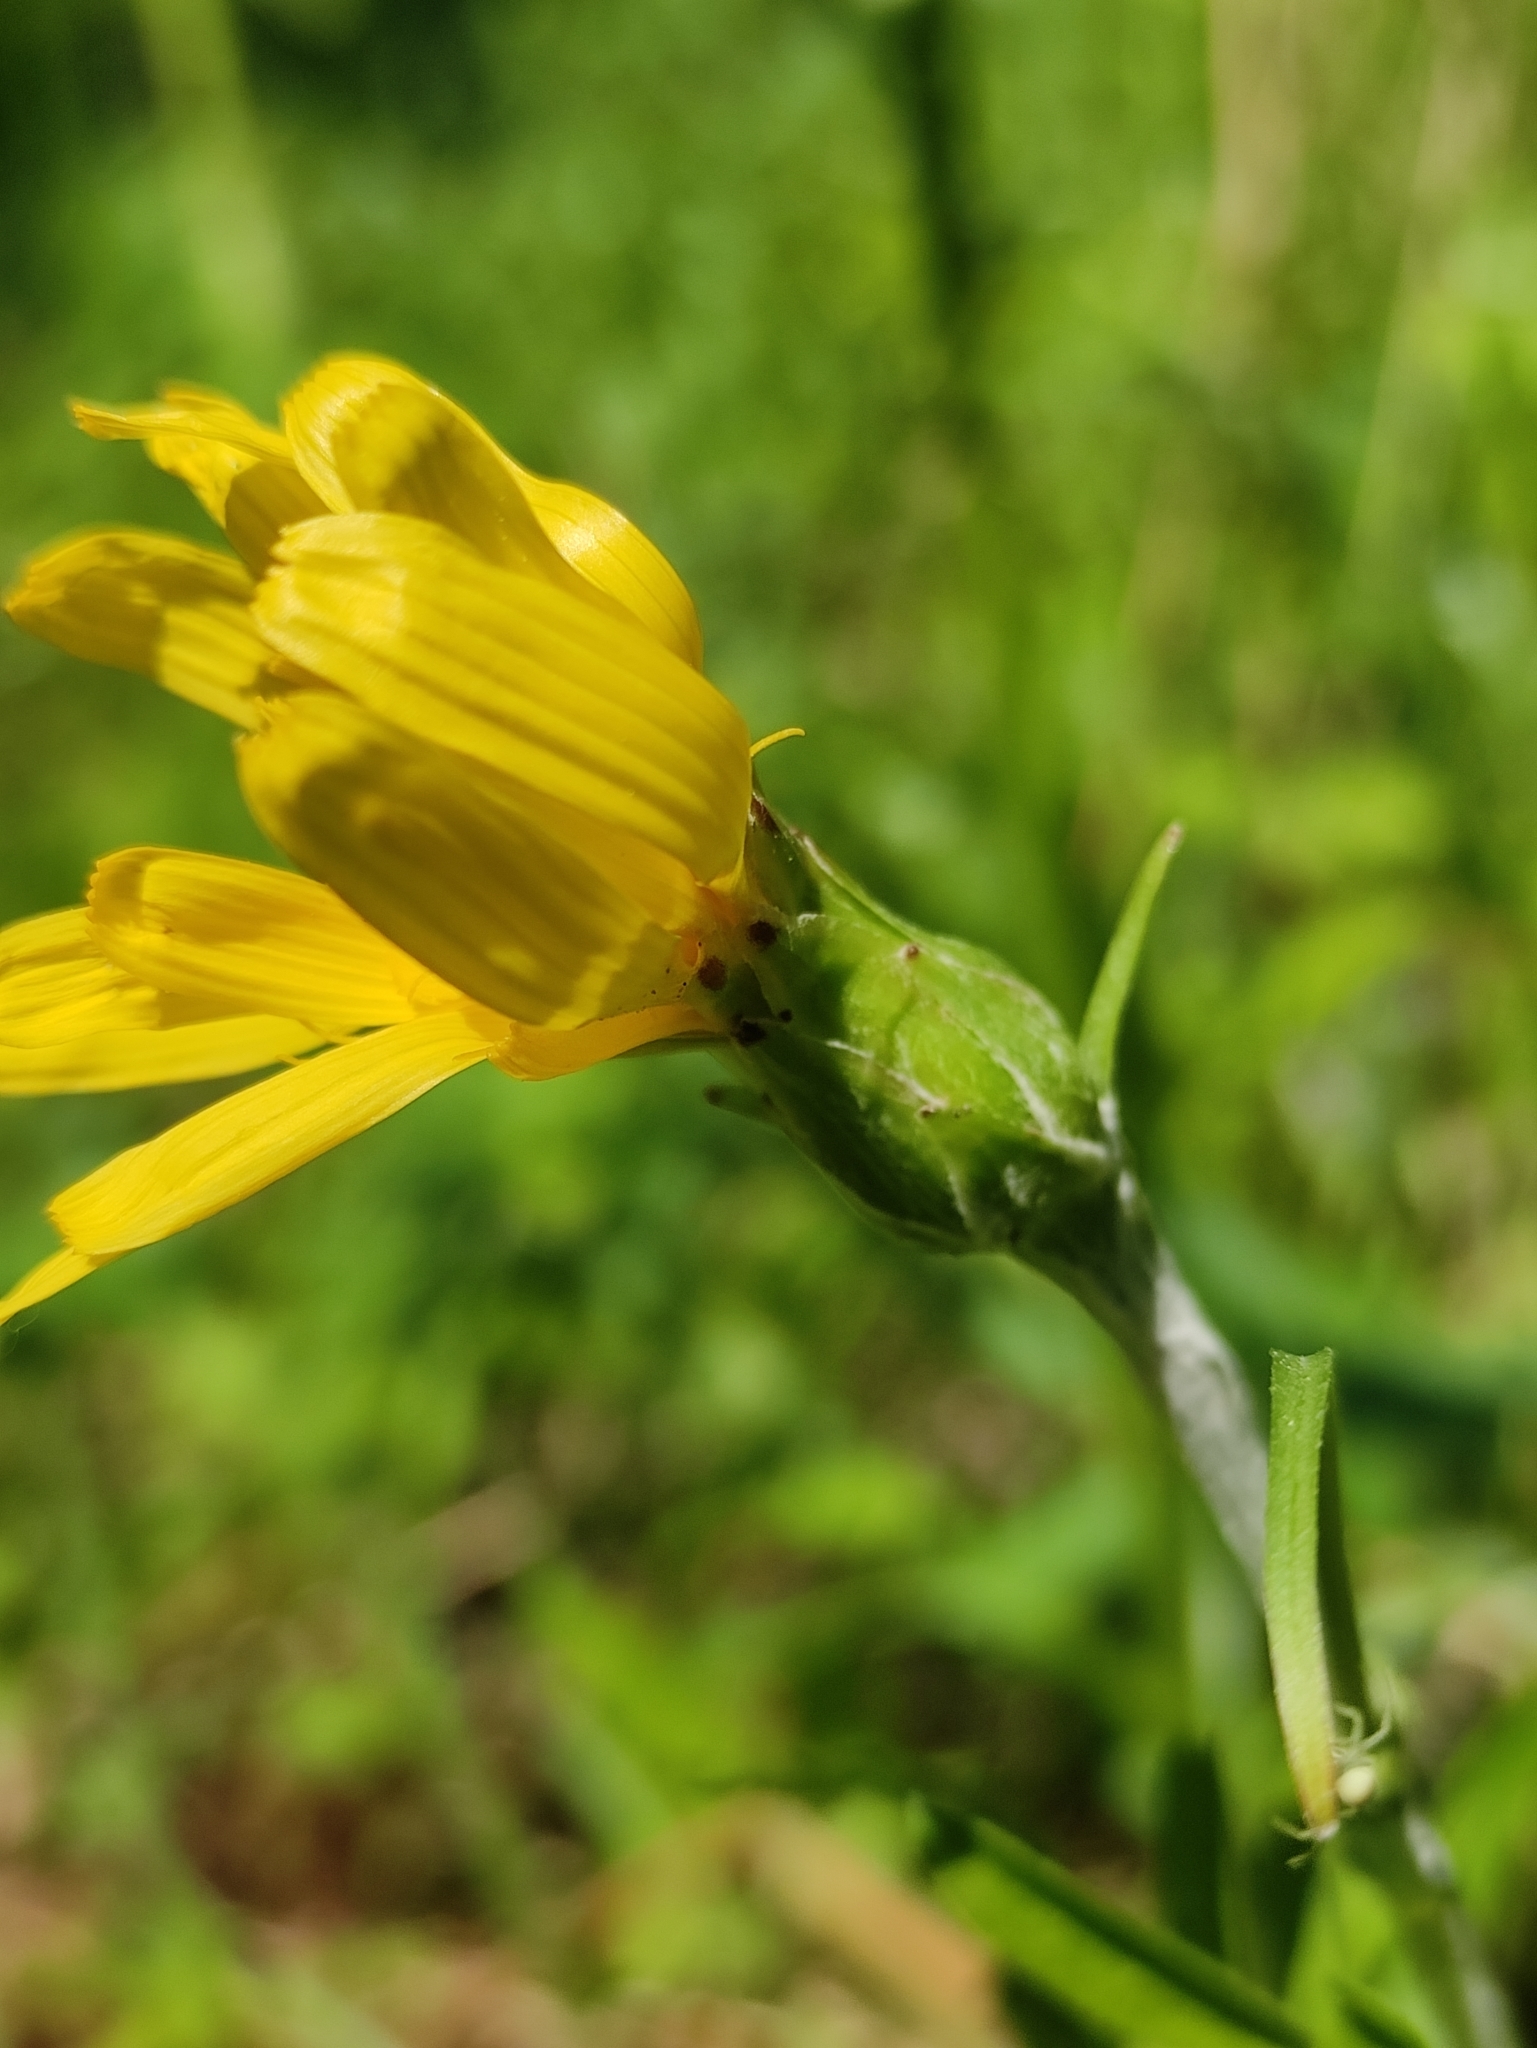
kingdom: Plantae
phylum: Tracheophyta
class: Magnoliopsida
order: Asterales
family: Asteraceae
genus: Scorzonera
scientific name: Scorzonera radiata
